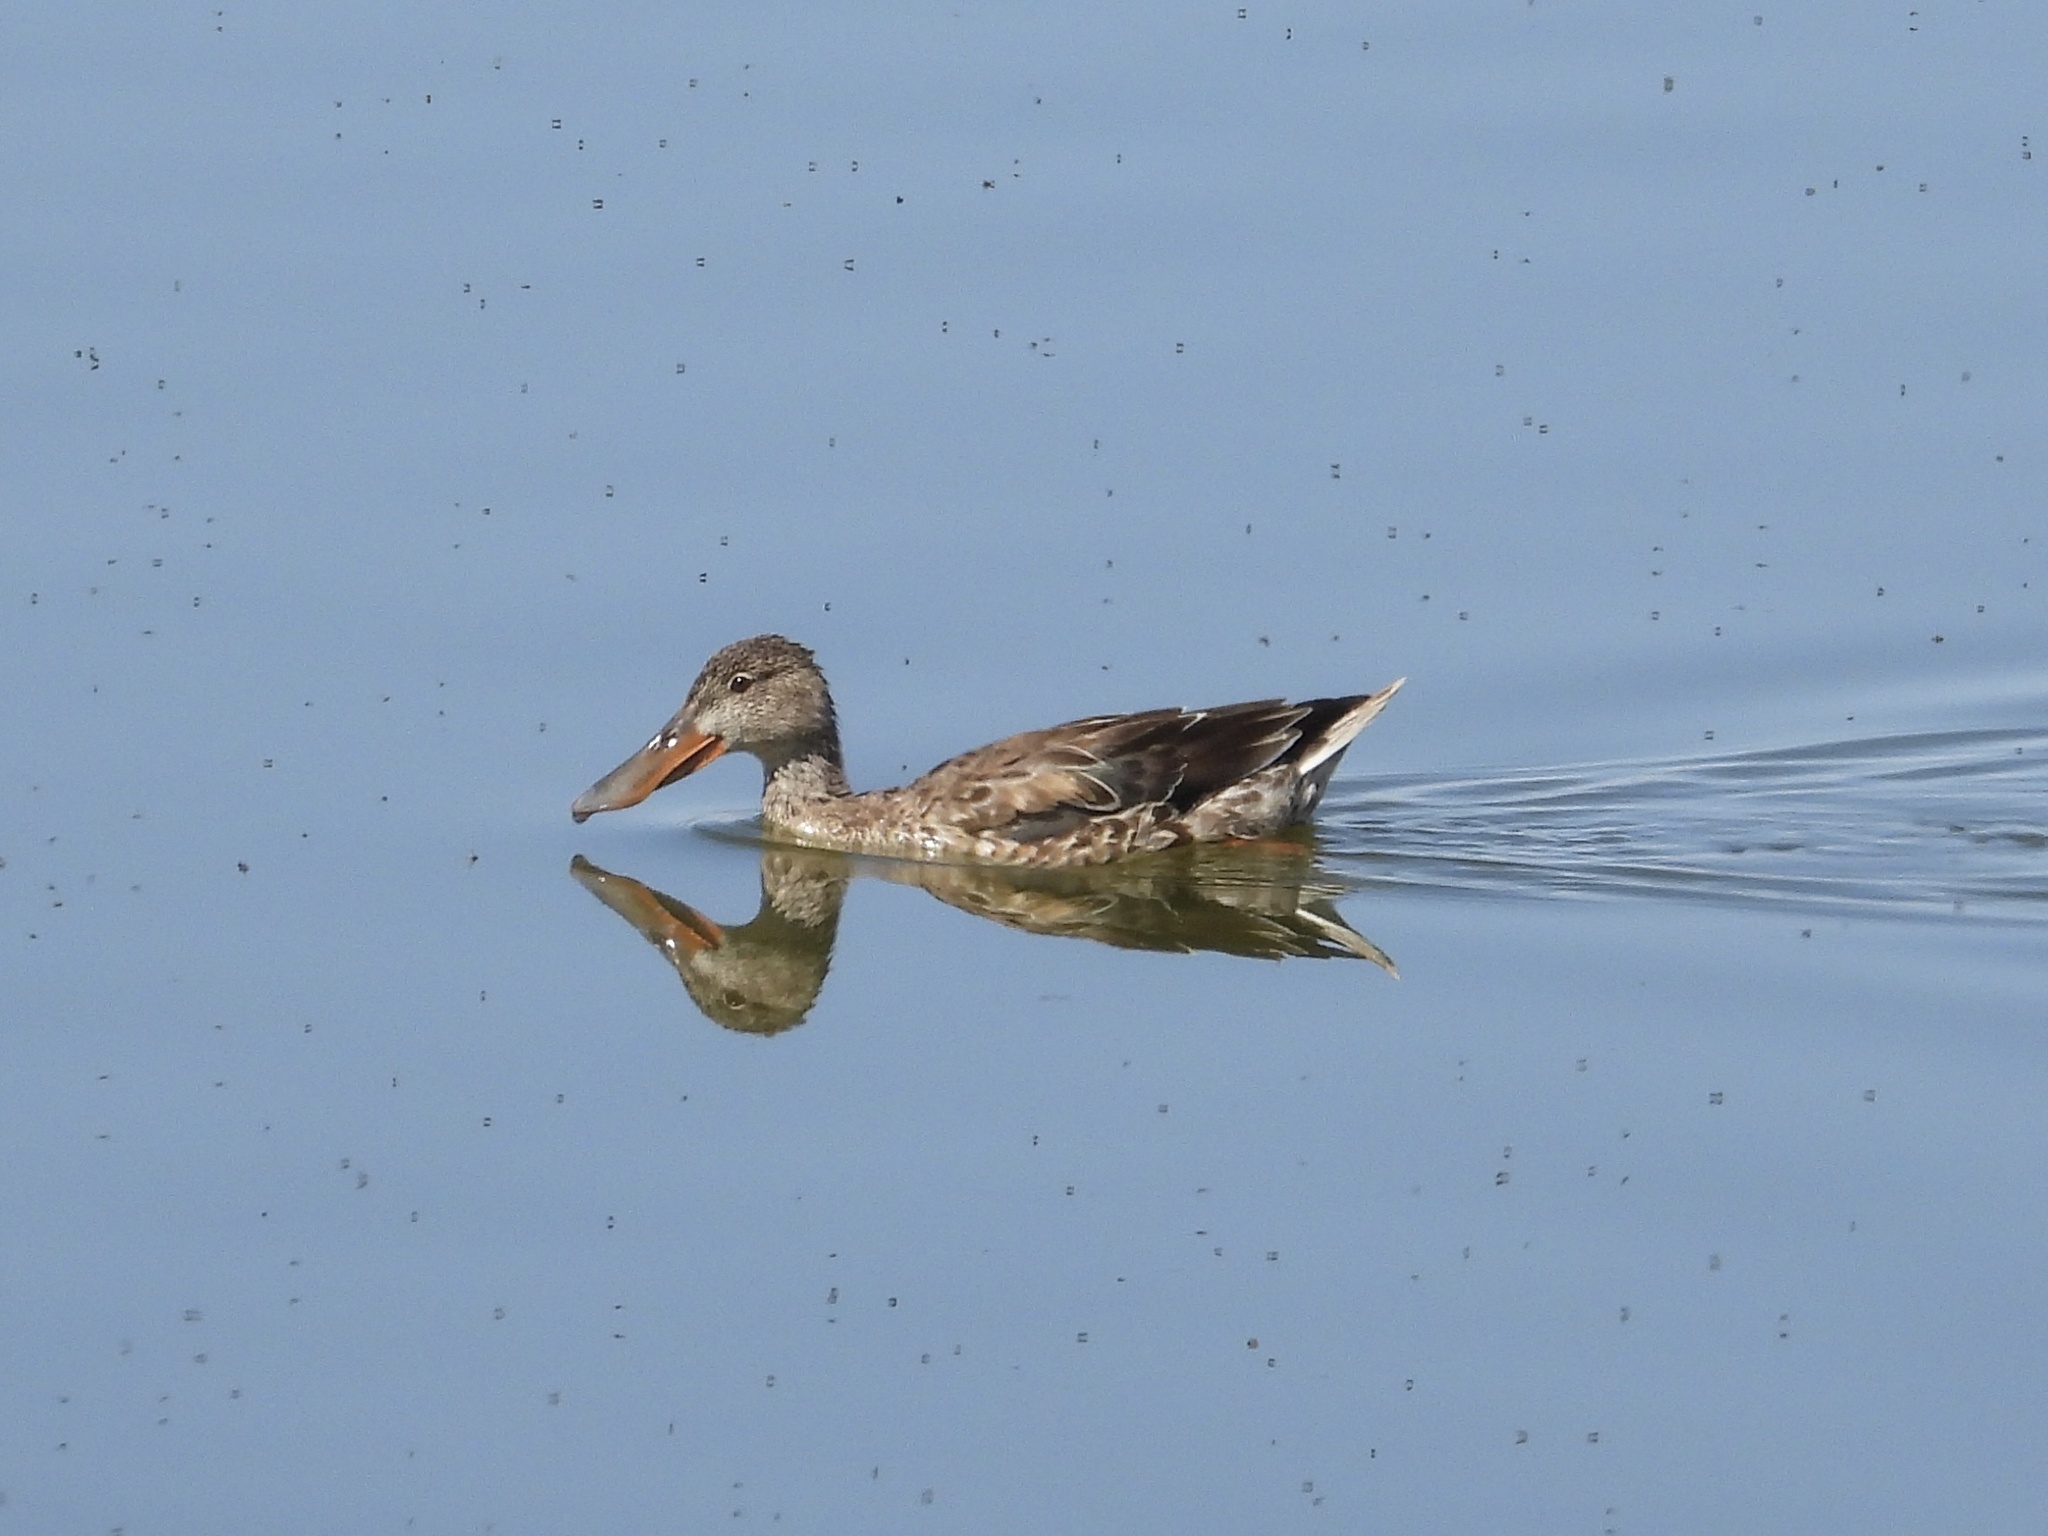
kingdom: Animalia
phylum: Chordata
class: Aves
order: Anseriformes
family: Anatidae
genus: Spatula
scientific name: Spatula clypeata
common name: Northern shoveler
